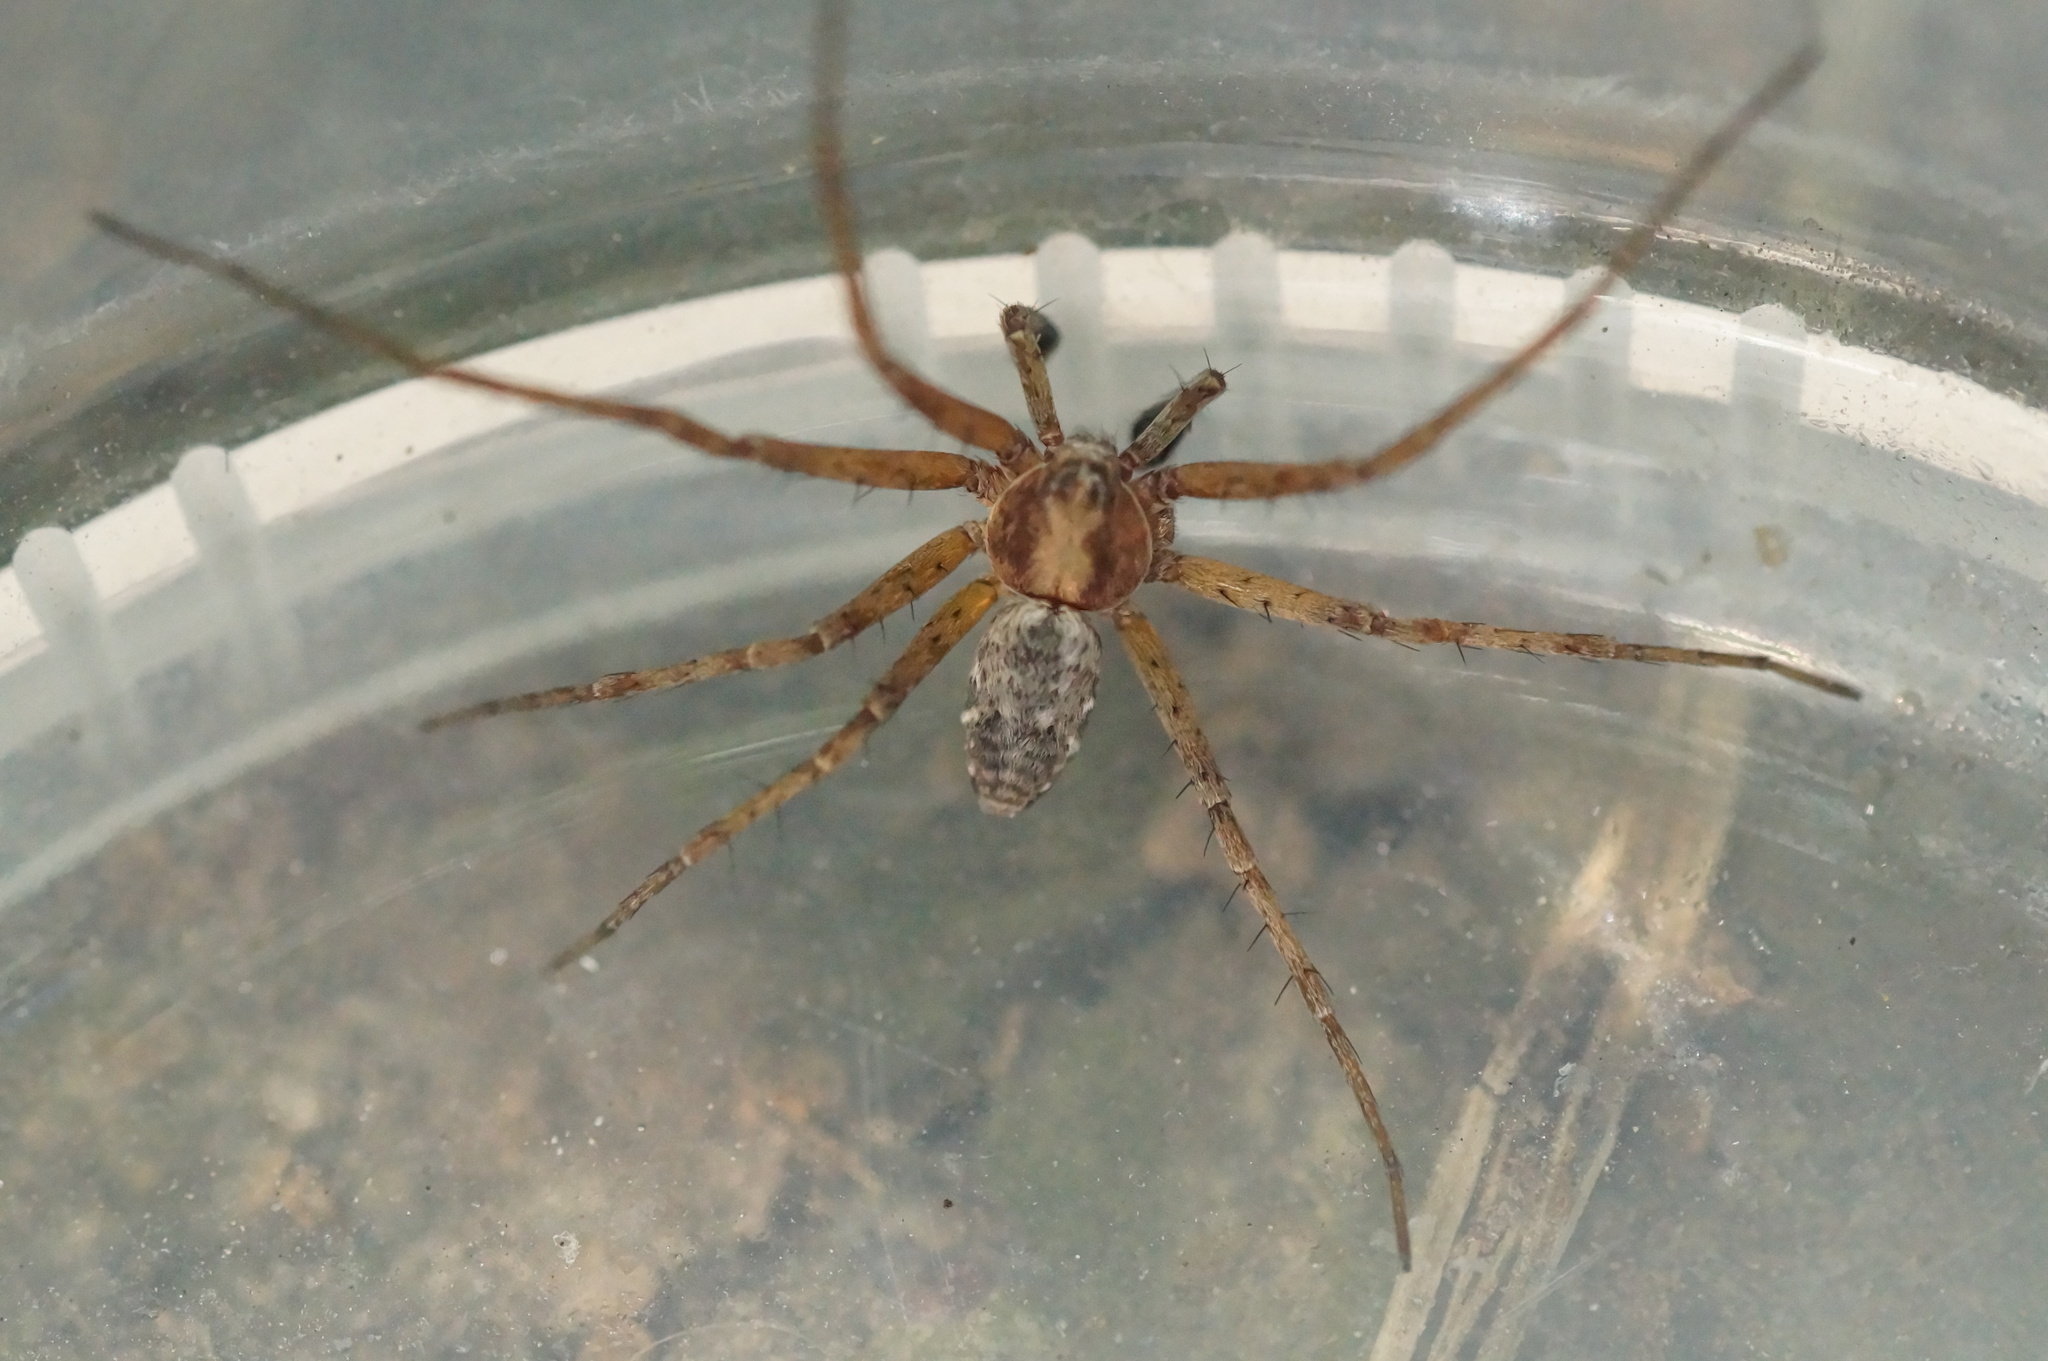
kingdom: Animalia
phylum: Arthropoda
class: Arachnida
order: Araneae
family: Philodromidae
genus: Philodromus
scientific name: Philodromus cespitum
